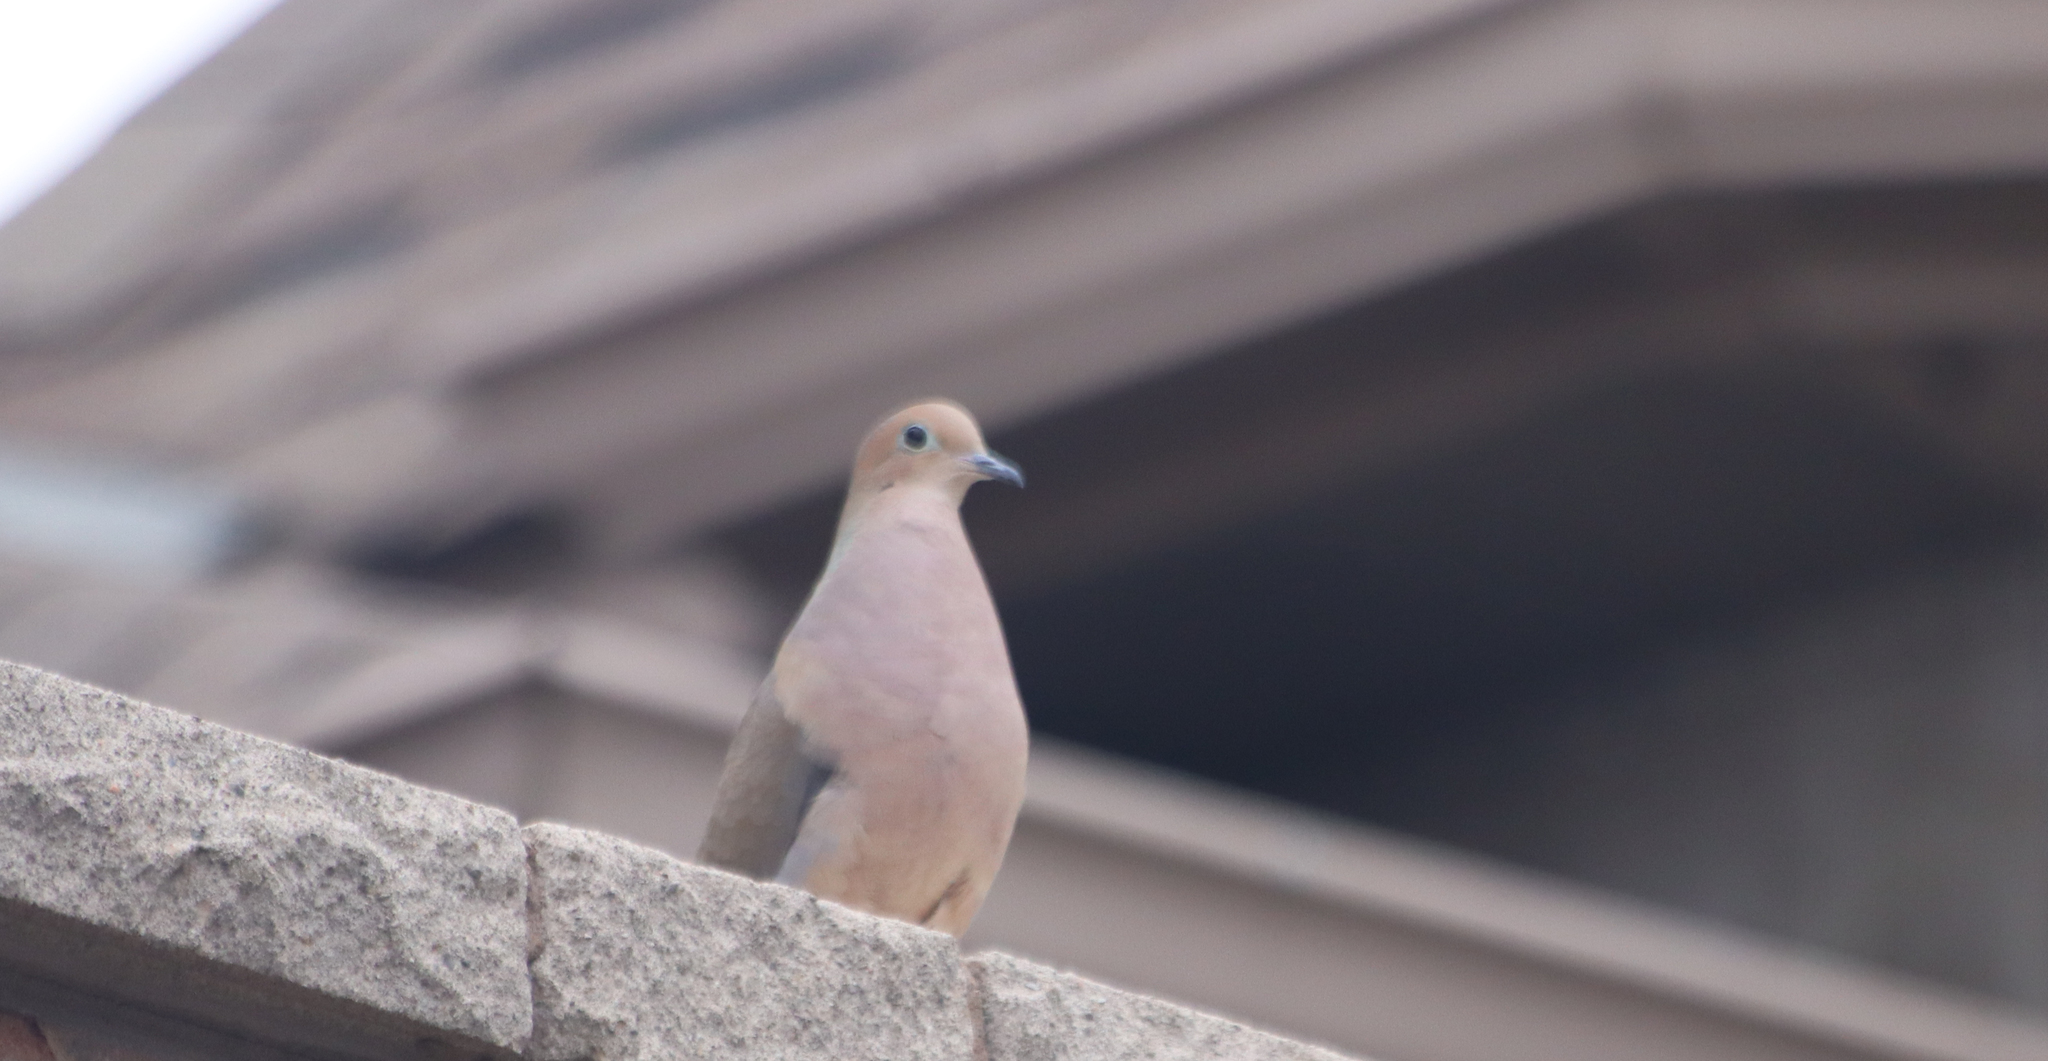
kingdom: Animalia
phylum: Chordata
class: Aves
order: Columbiformes
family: Columbidae
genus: Zenaida
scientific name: Zenaida macroura
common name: Mourning dove
